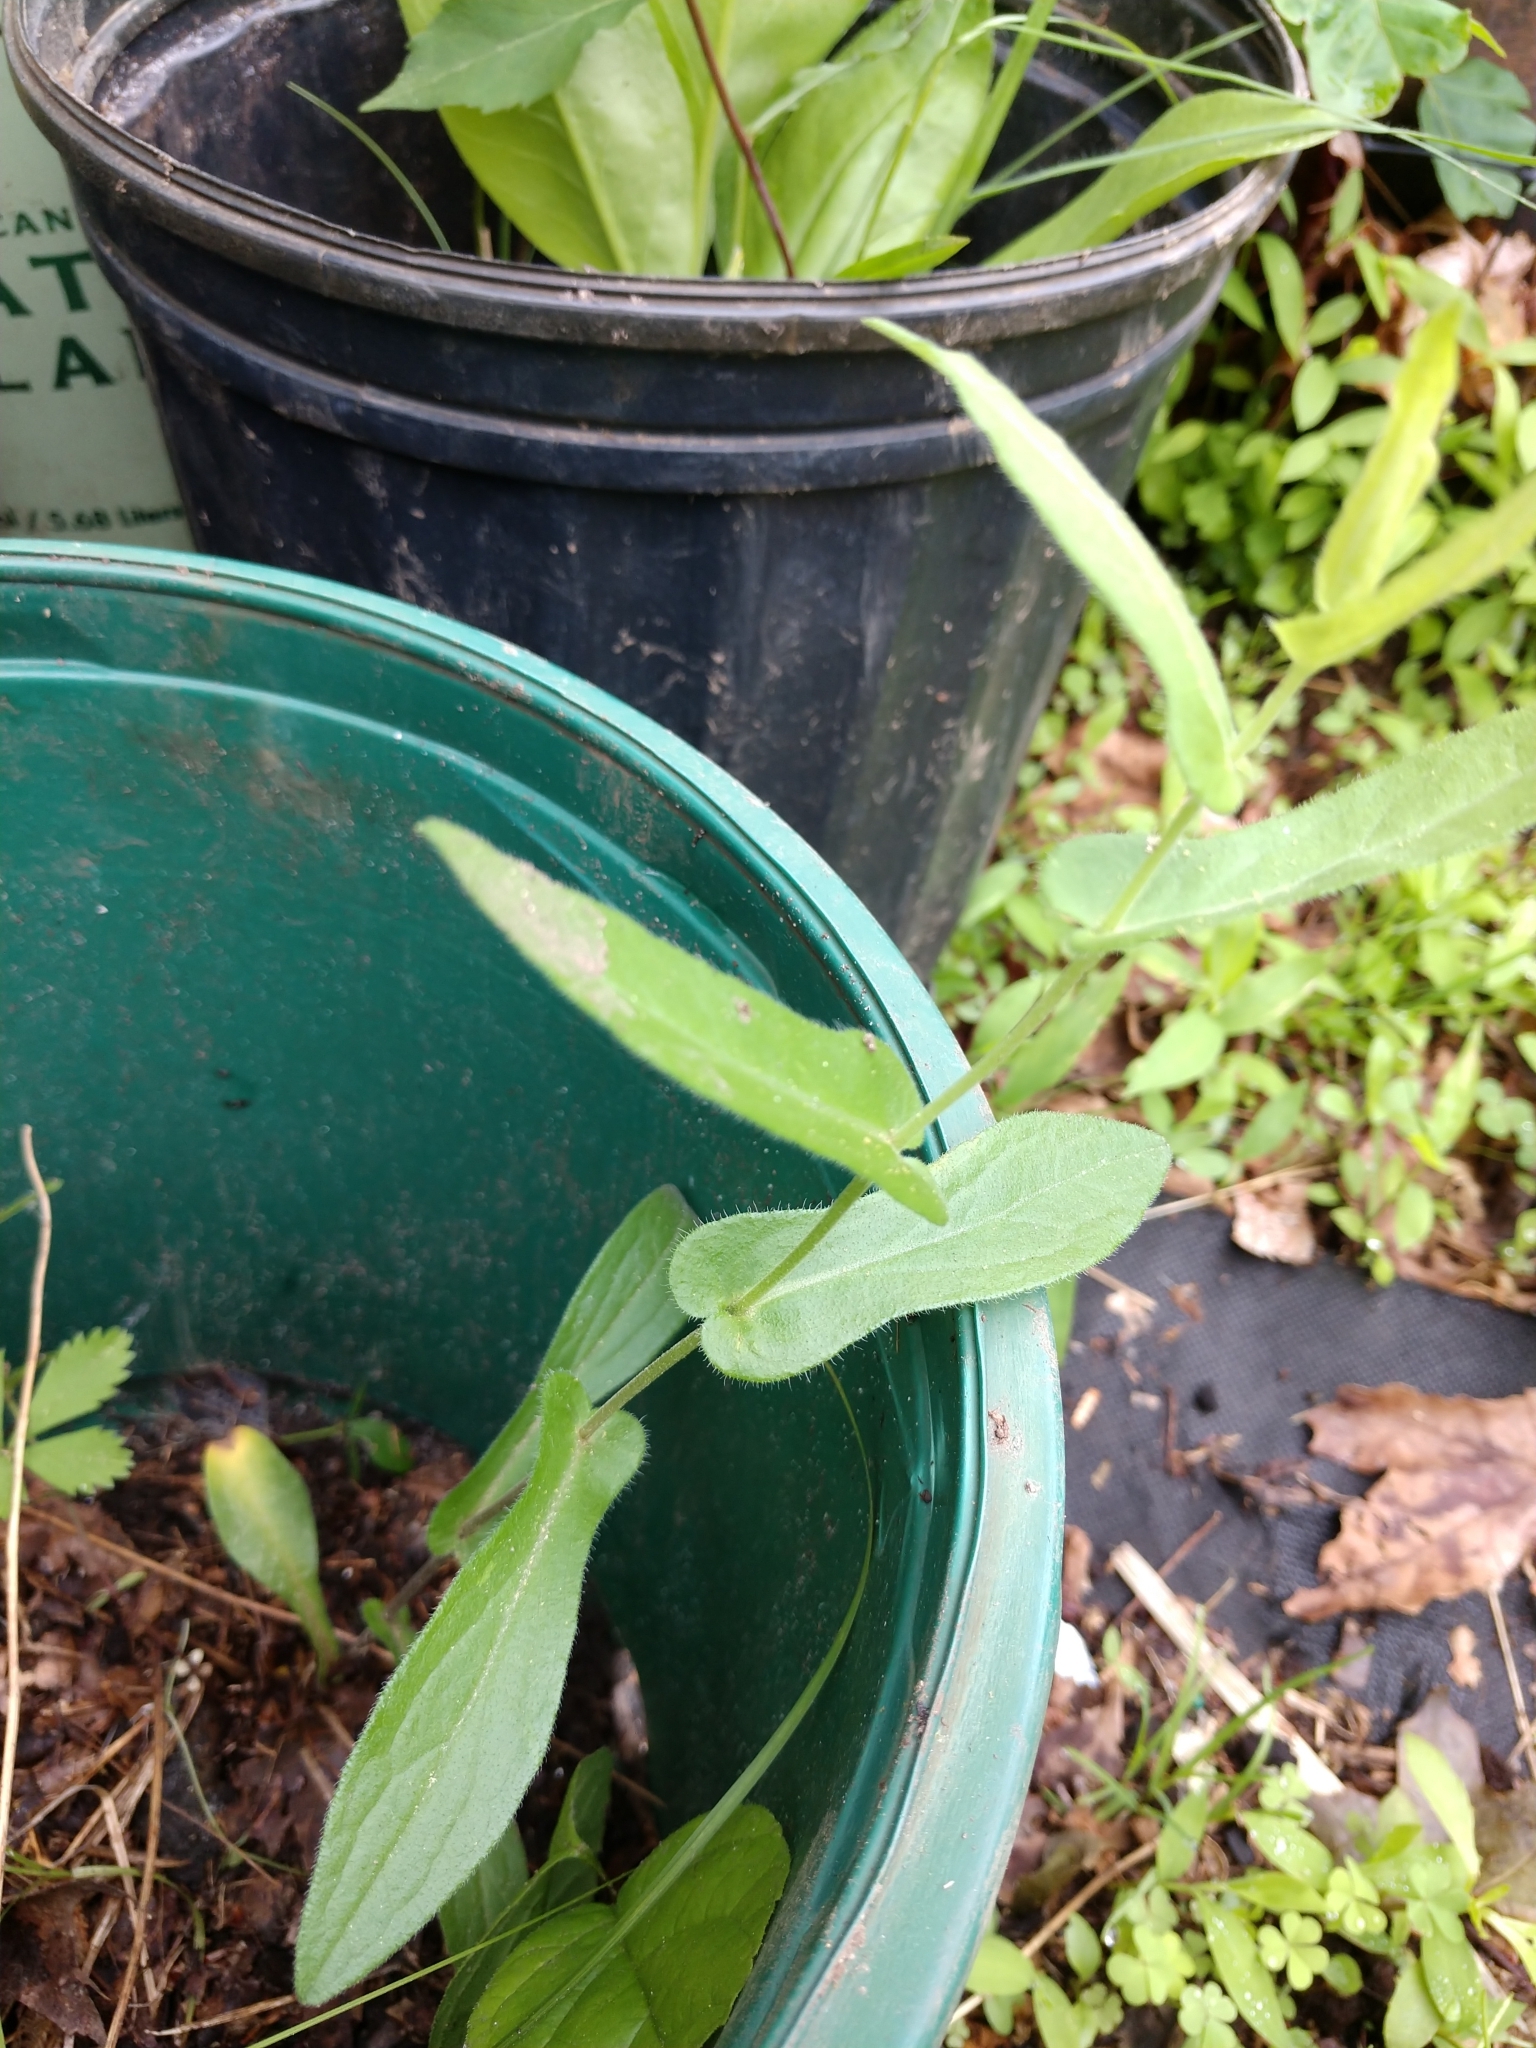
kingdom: Plantae
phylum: Tracheophyta
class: Magnoliopsida
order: Asterales
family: Asteraceae
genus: Erigeron
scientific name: Erigeron philadelphicus
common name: Robin's-plantain
